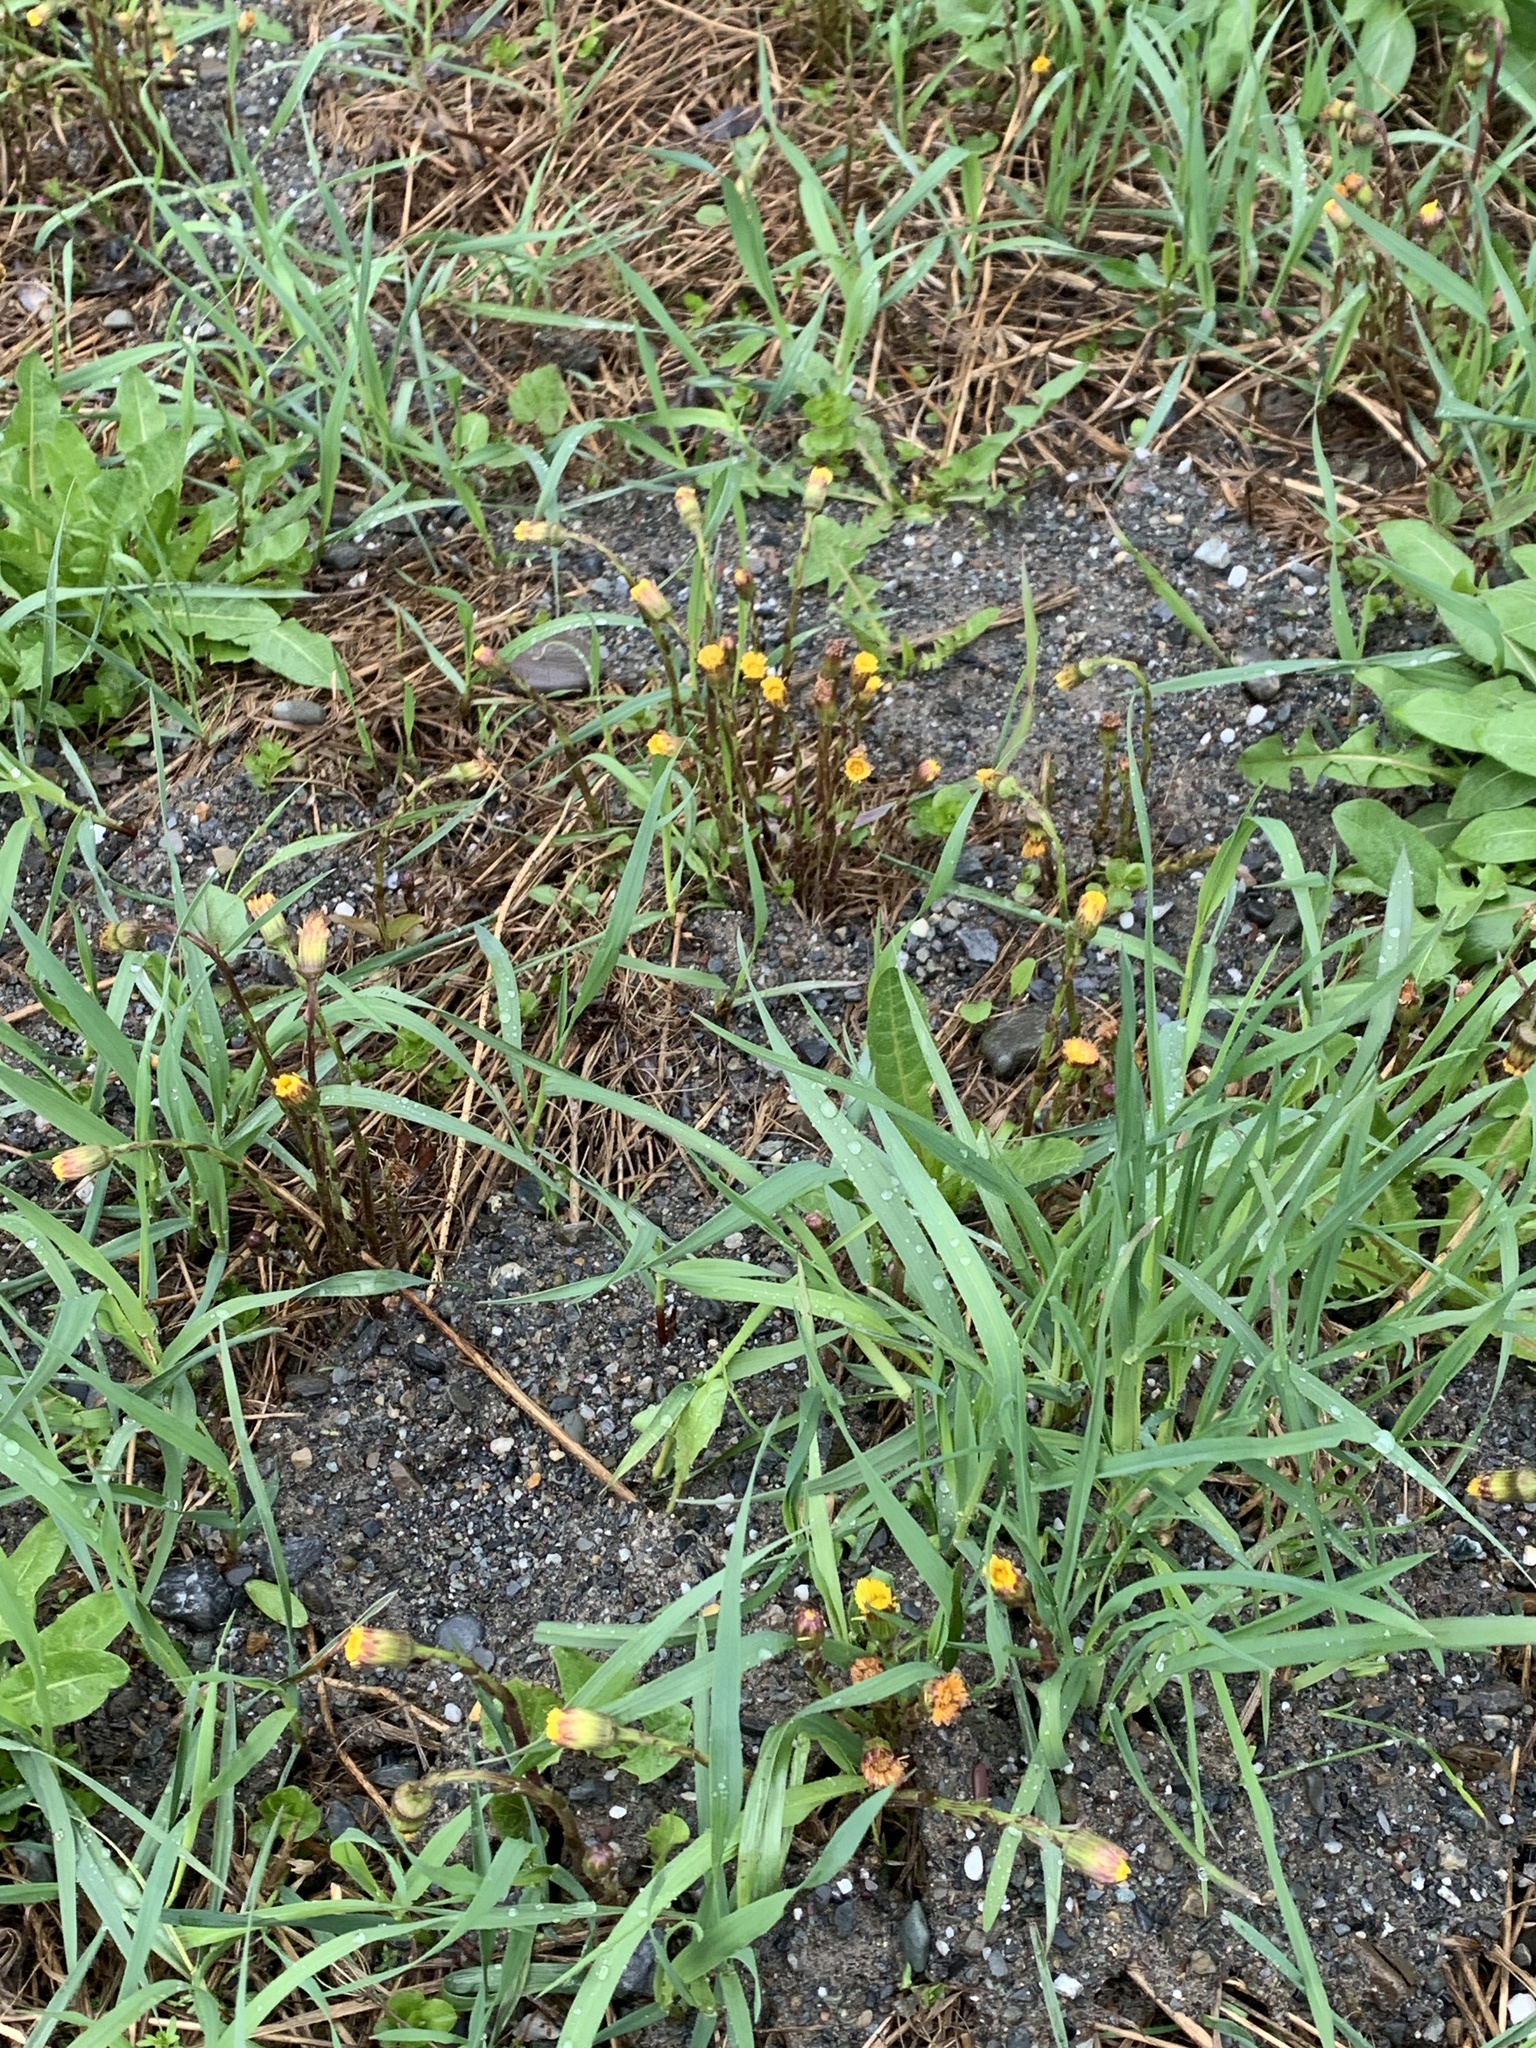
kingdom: Plantae
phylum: Tracheophyta
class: Magnoliopsida
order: Asterales
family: Asteraceae
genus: Tussilago
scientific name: Tussilago farfara
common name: Coltsfoot
